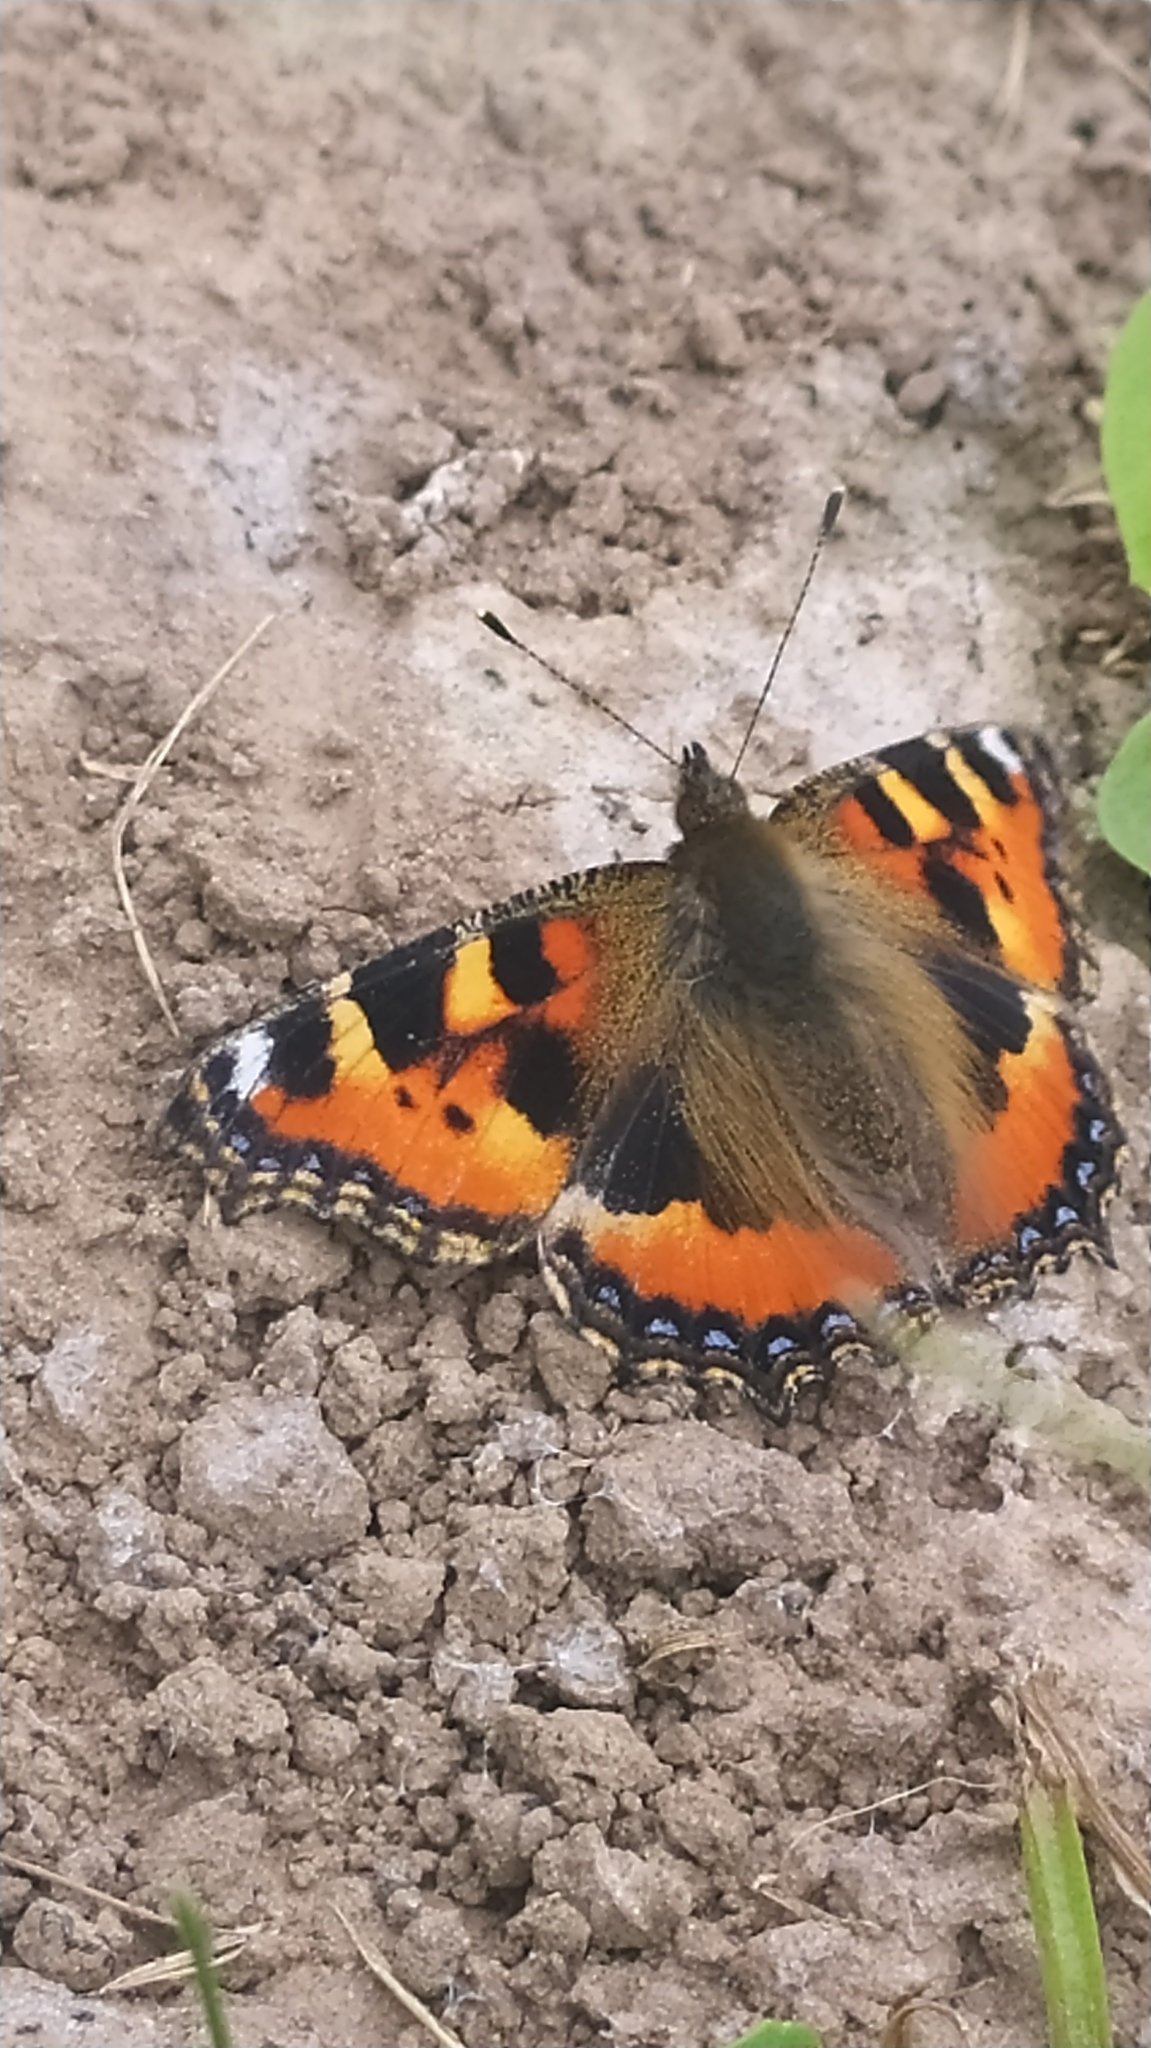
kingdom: Animalia
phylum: Arthropoda
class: Insecta
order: Lepidoptera
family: Nymphalidae
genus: Aglais
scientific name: Aglais urticae
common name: Small tortoiseshell
